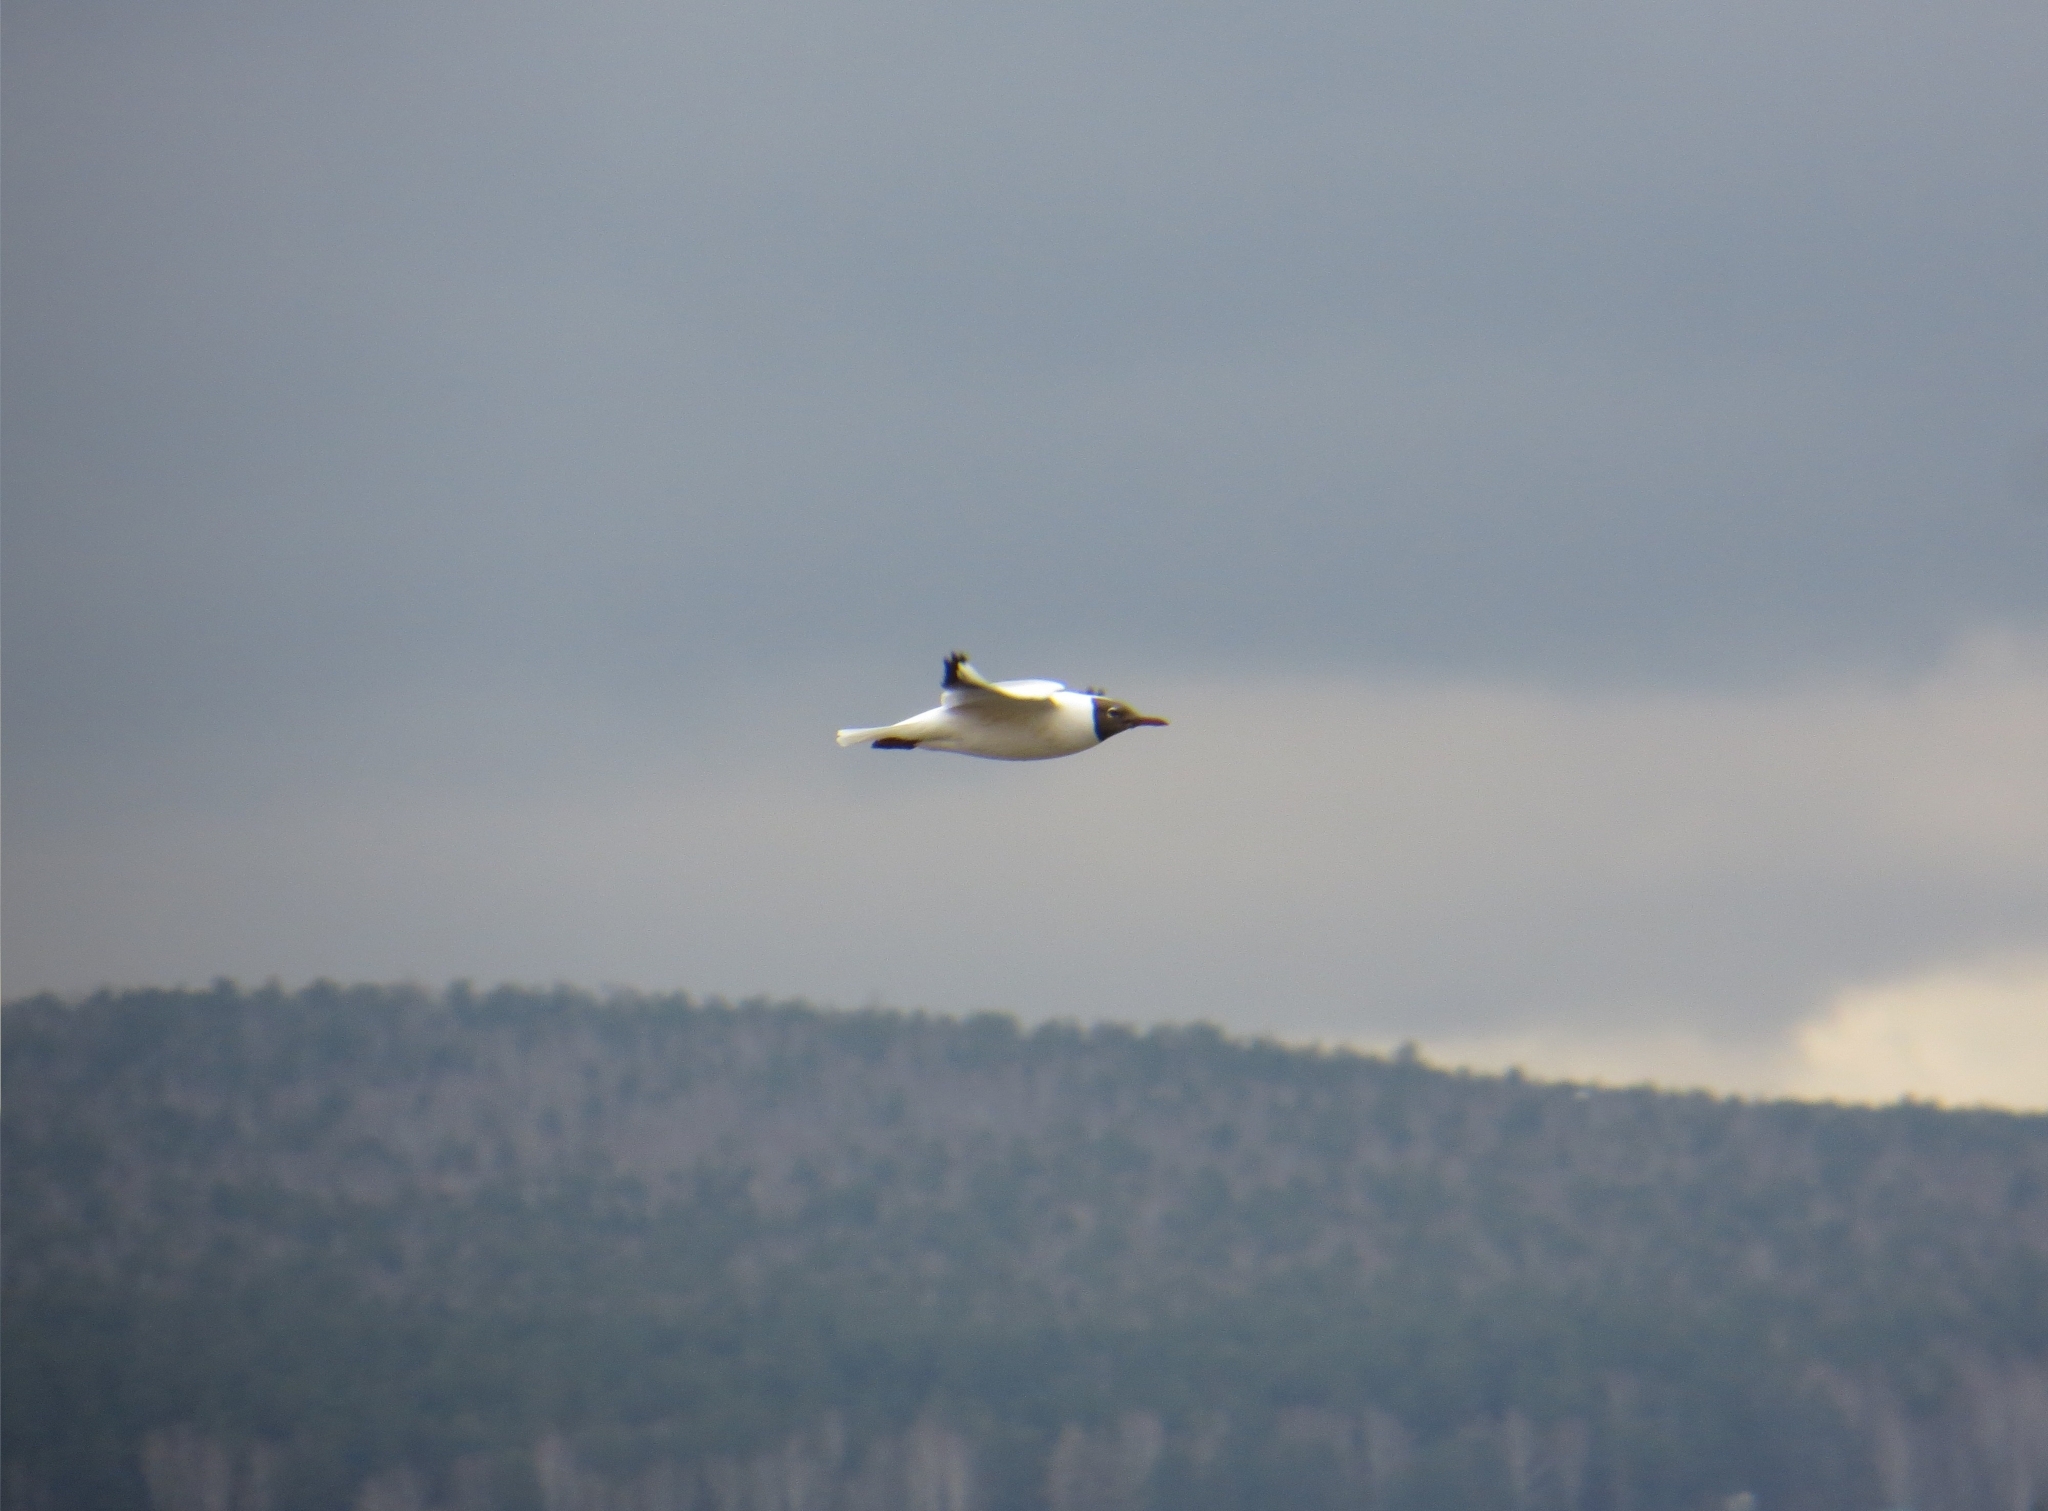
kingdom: Animalia
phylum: Chordata
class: Aves
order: Charadriiformes
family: Laridae
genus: Chroicocephalus
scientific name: Chroicocephalus ridibundus
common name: Black-headed gull
